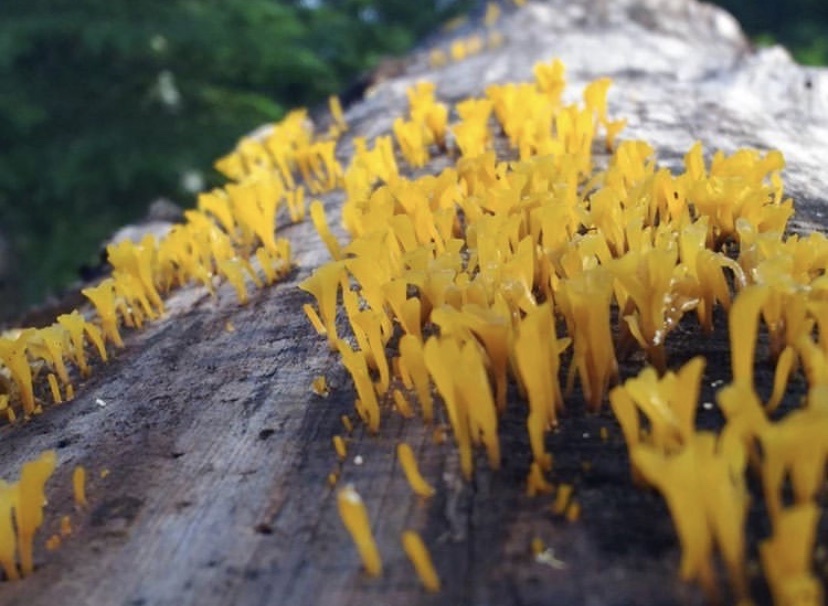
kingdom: Fungi
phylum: Basidiomycota
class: Dacrymycetes
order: Dacrymycetales
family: Dacrymycetaceae
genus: Dacrymyces
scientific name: Dacrymyces spathularius
